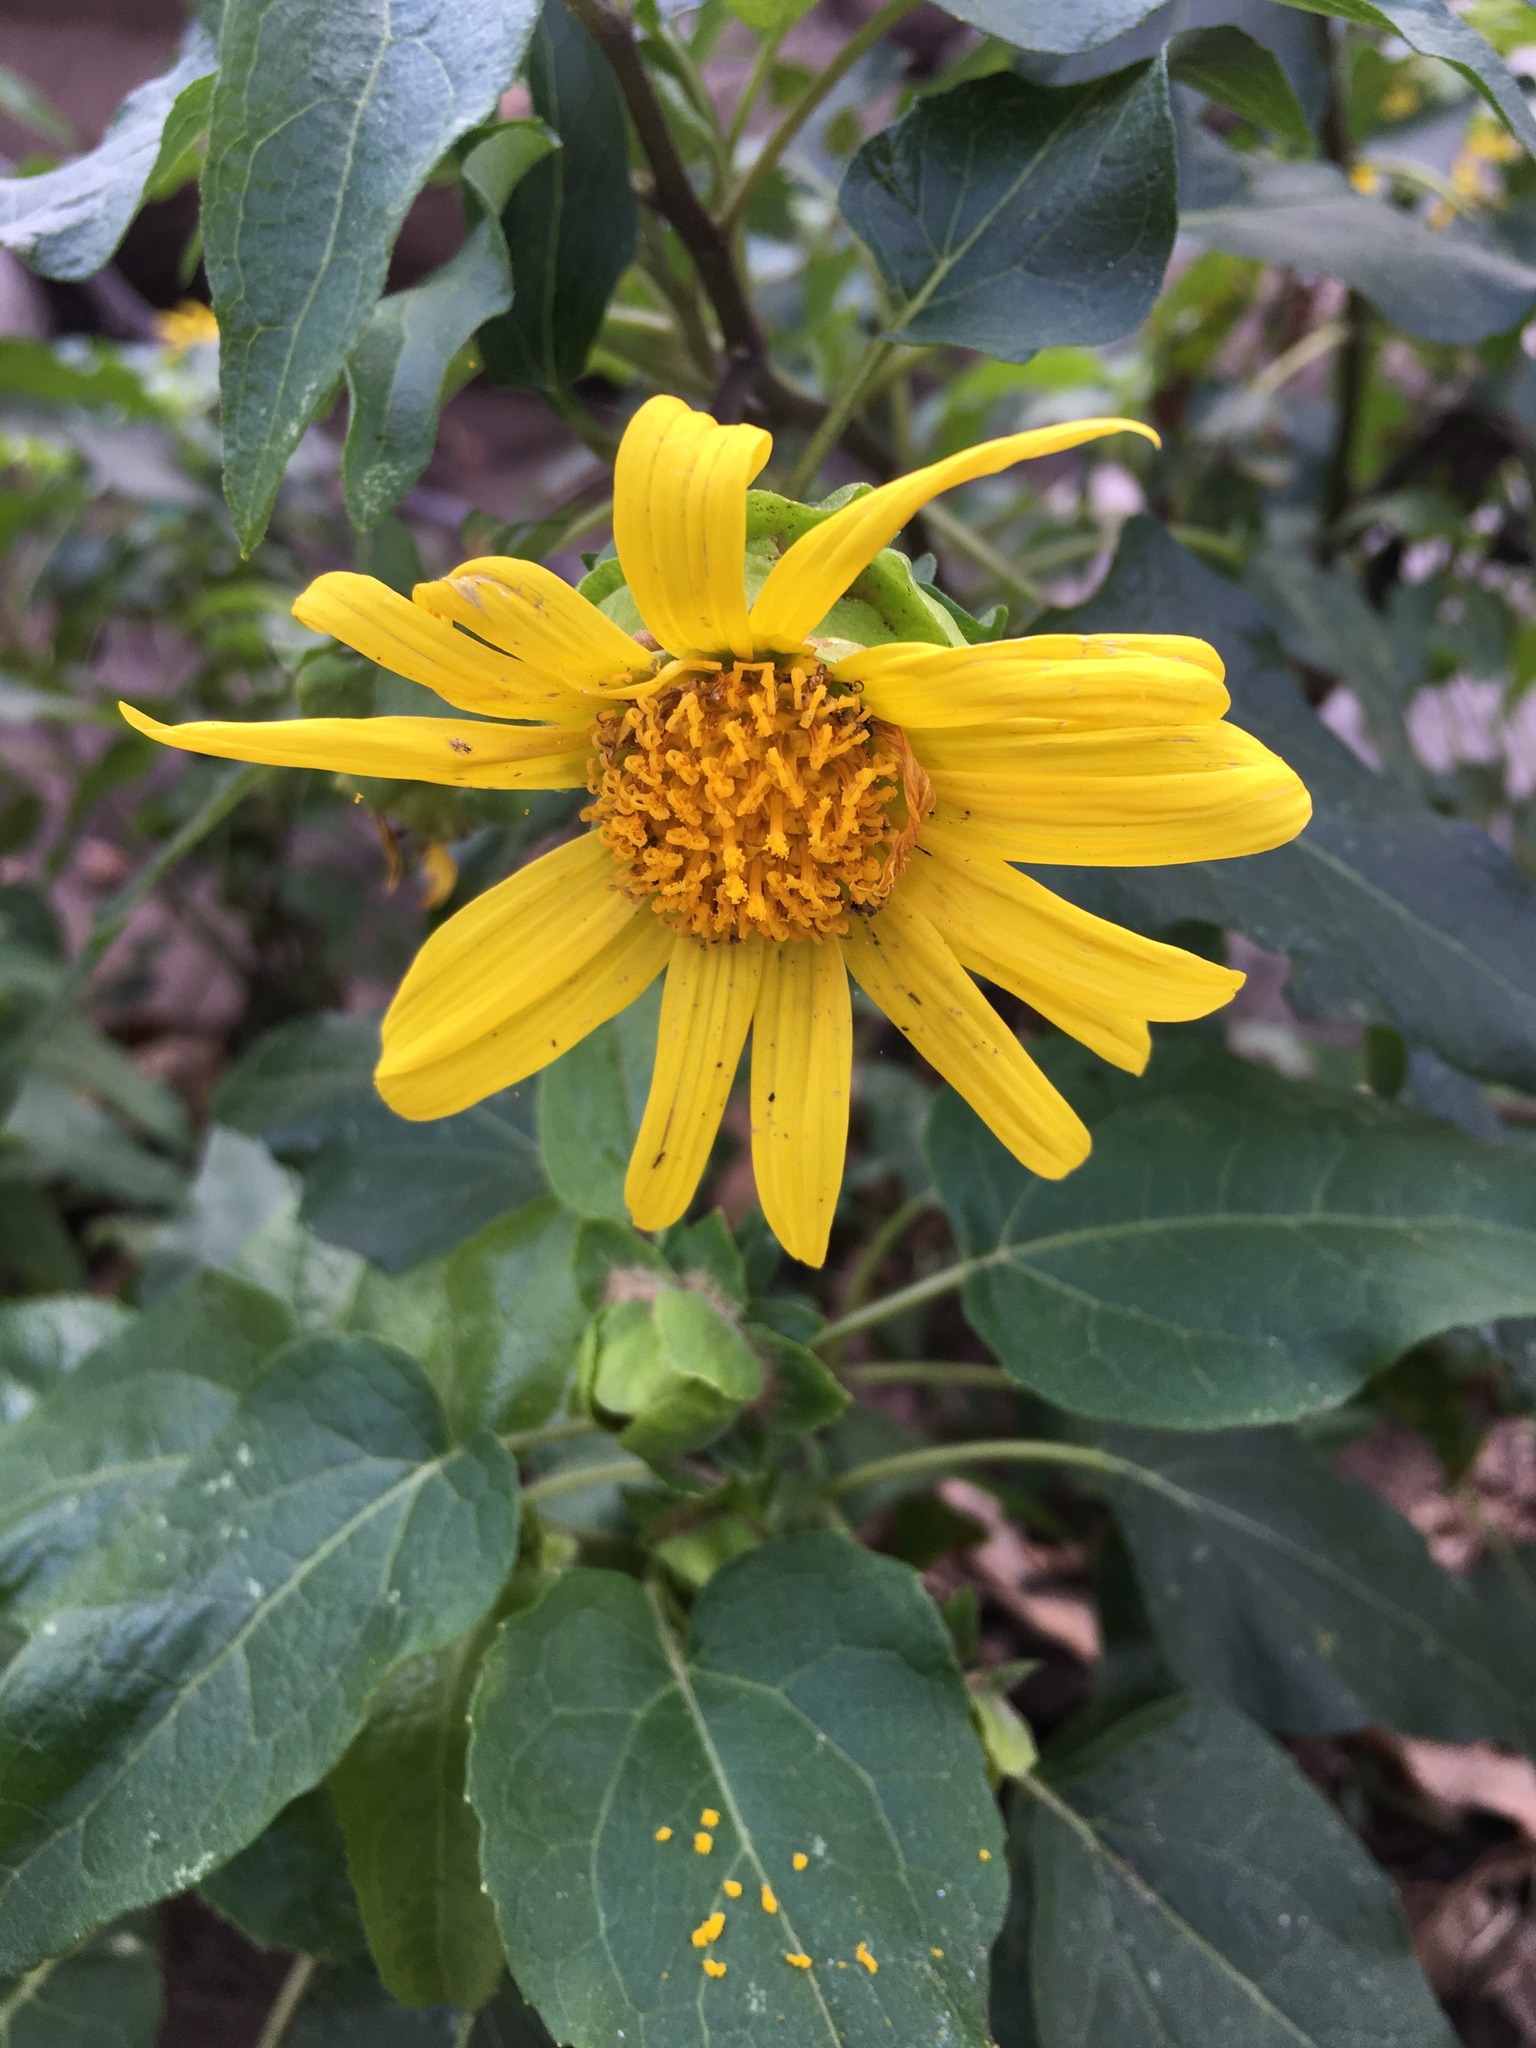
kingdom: Plantae
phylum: Tracheophyta
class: Magnoliopsida
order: Asterales
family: Asteraceae
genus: Venegasia
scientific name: Venegasia carpesioides
